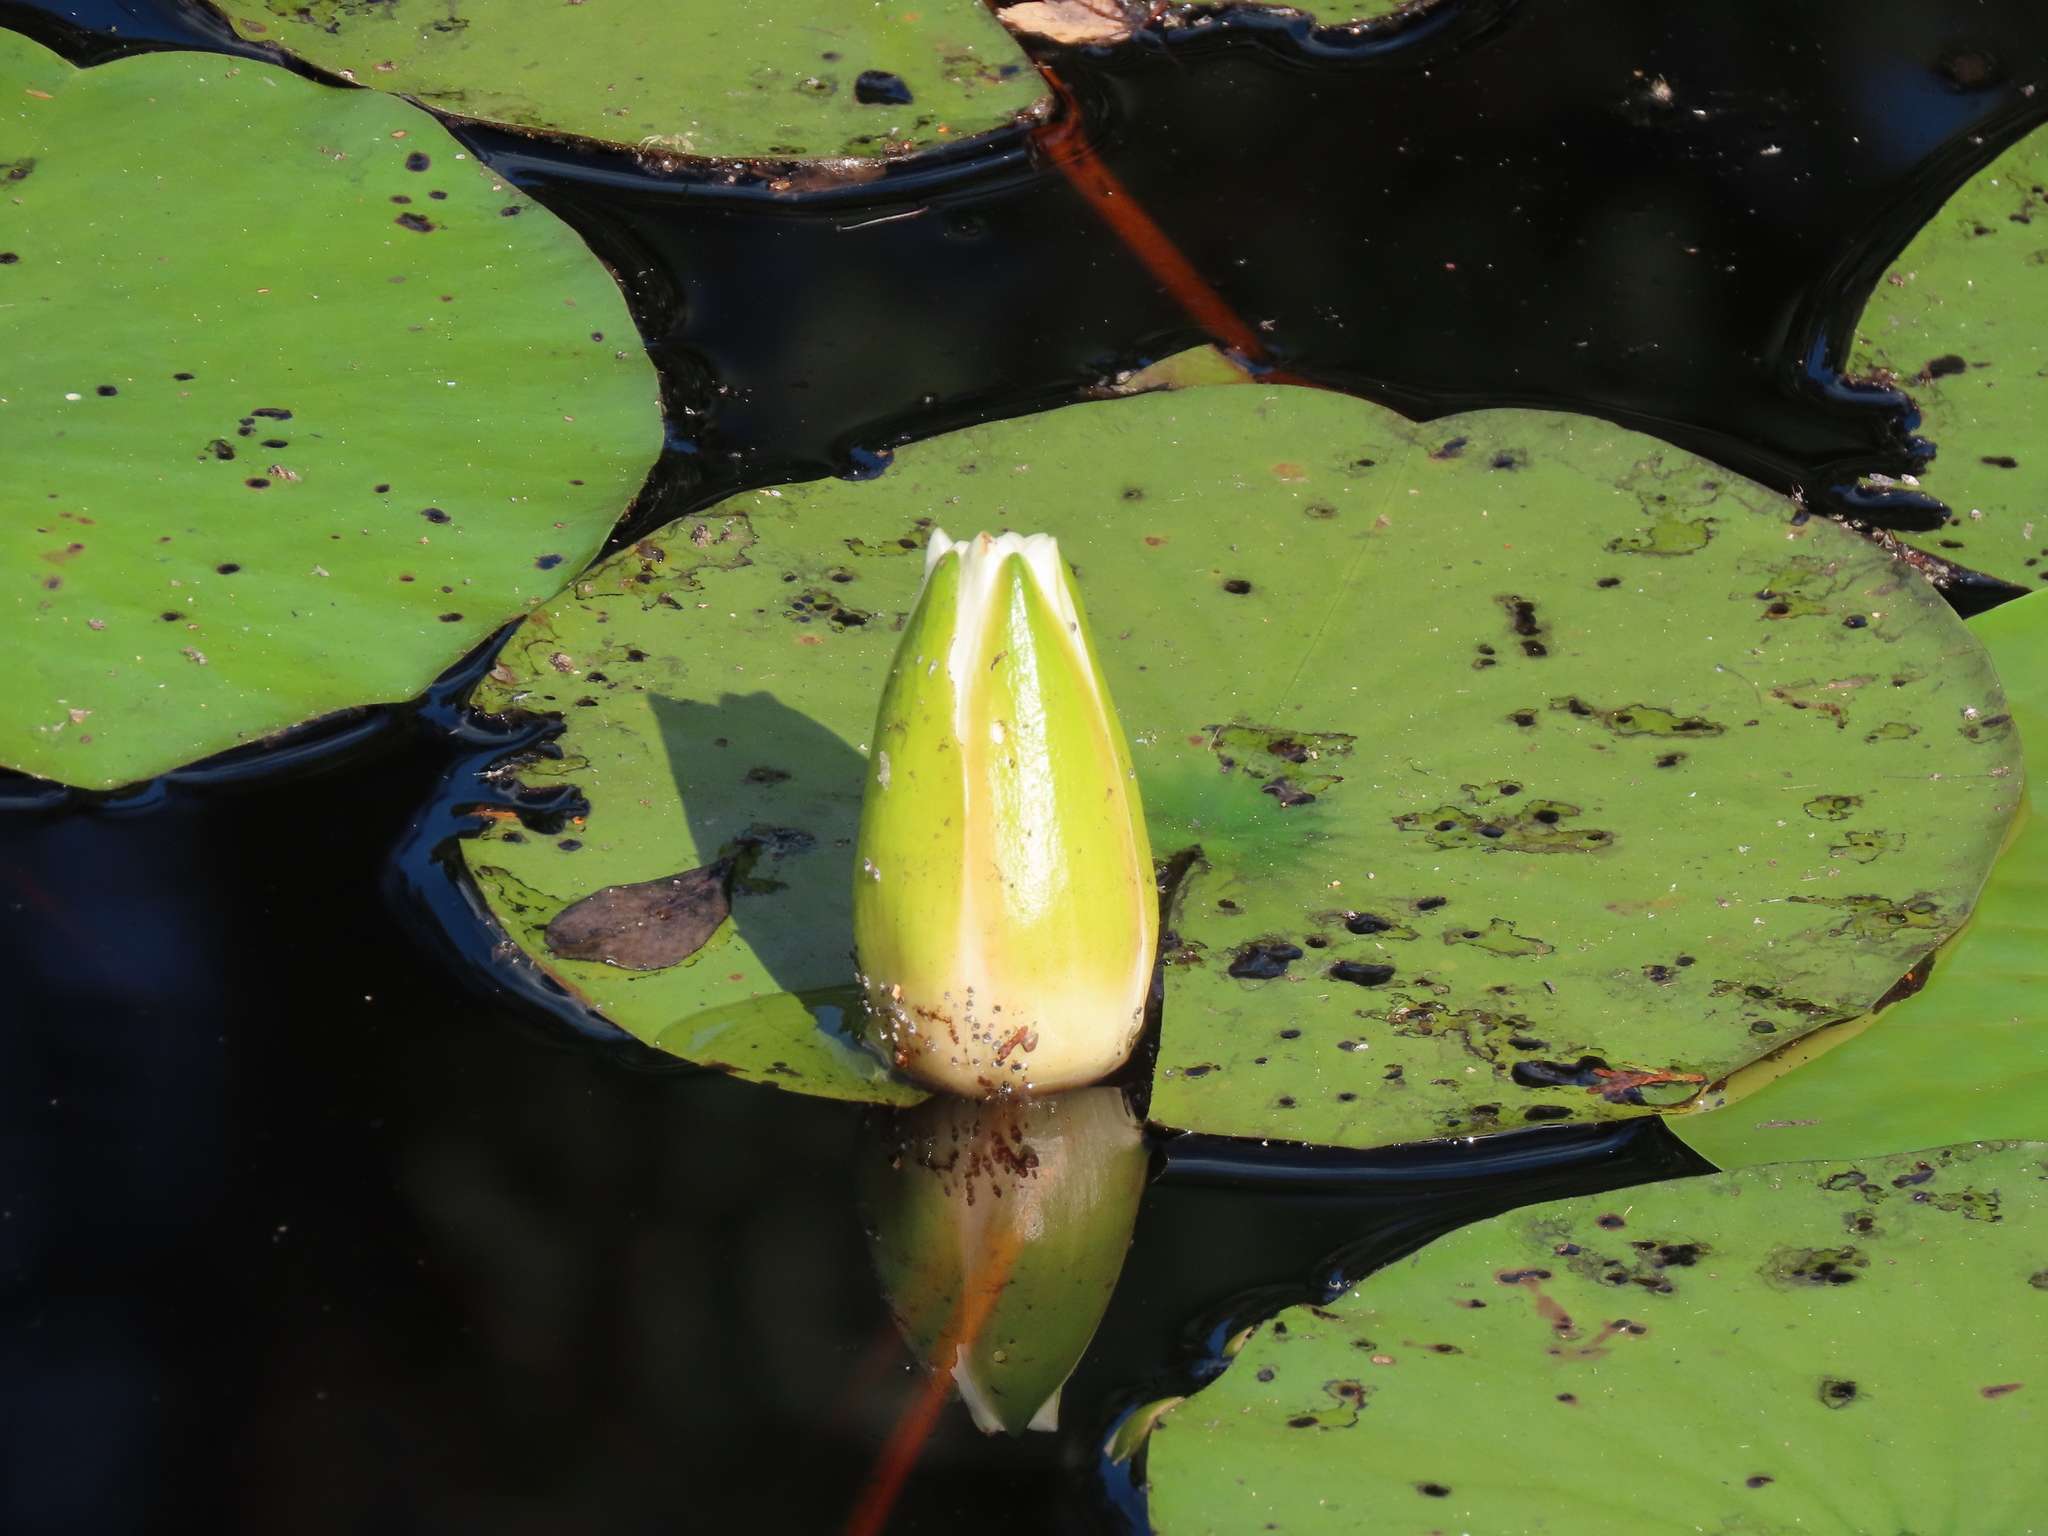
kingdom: Plantae
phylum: Tracheophyta
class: Magnoliopsida
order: Nymphaeales
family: Nymphaeaceae
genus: Nymphaea
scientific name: Nymphaea odorata
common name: Fragrant water-lily
